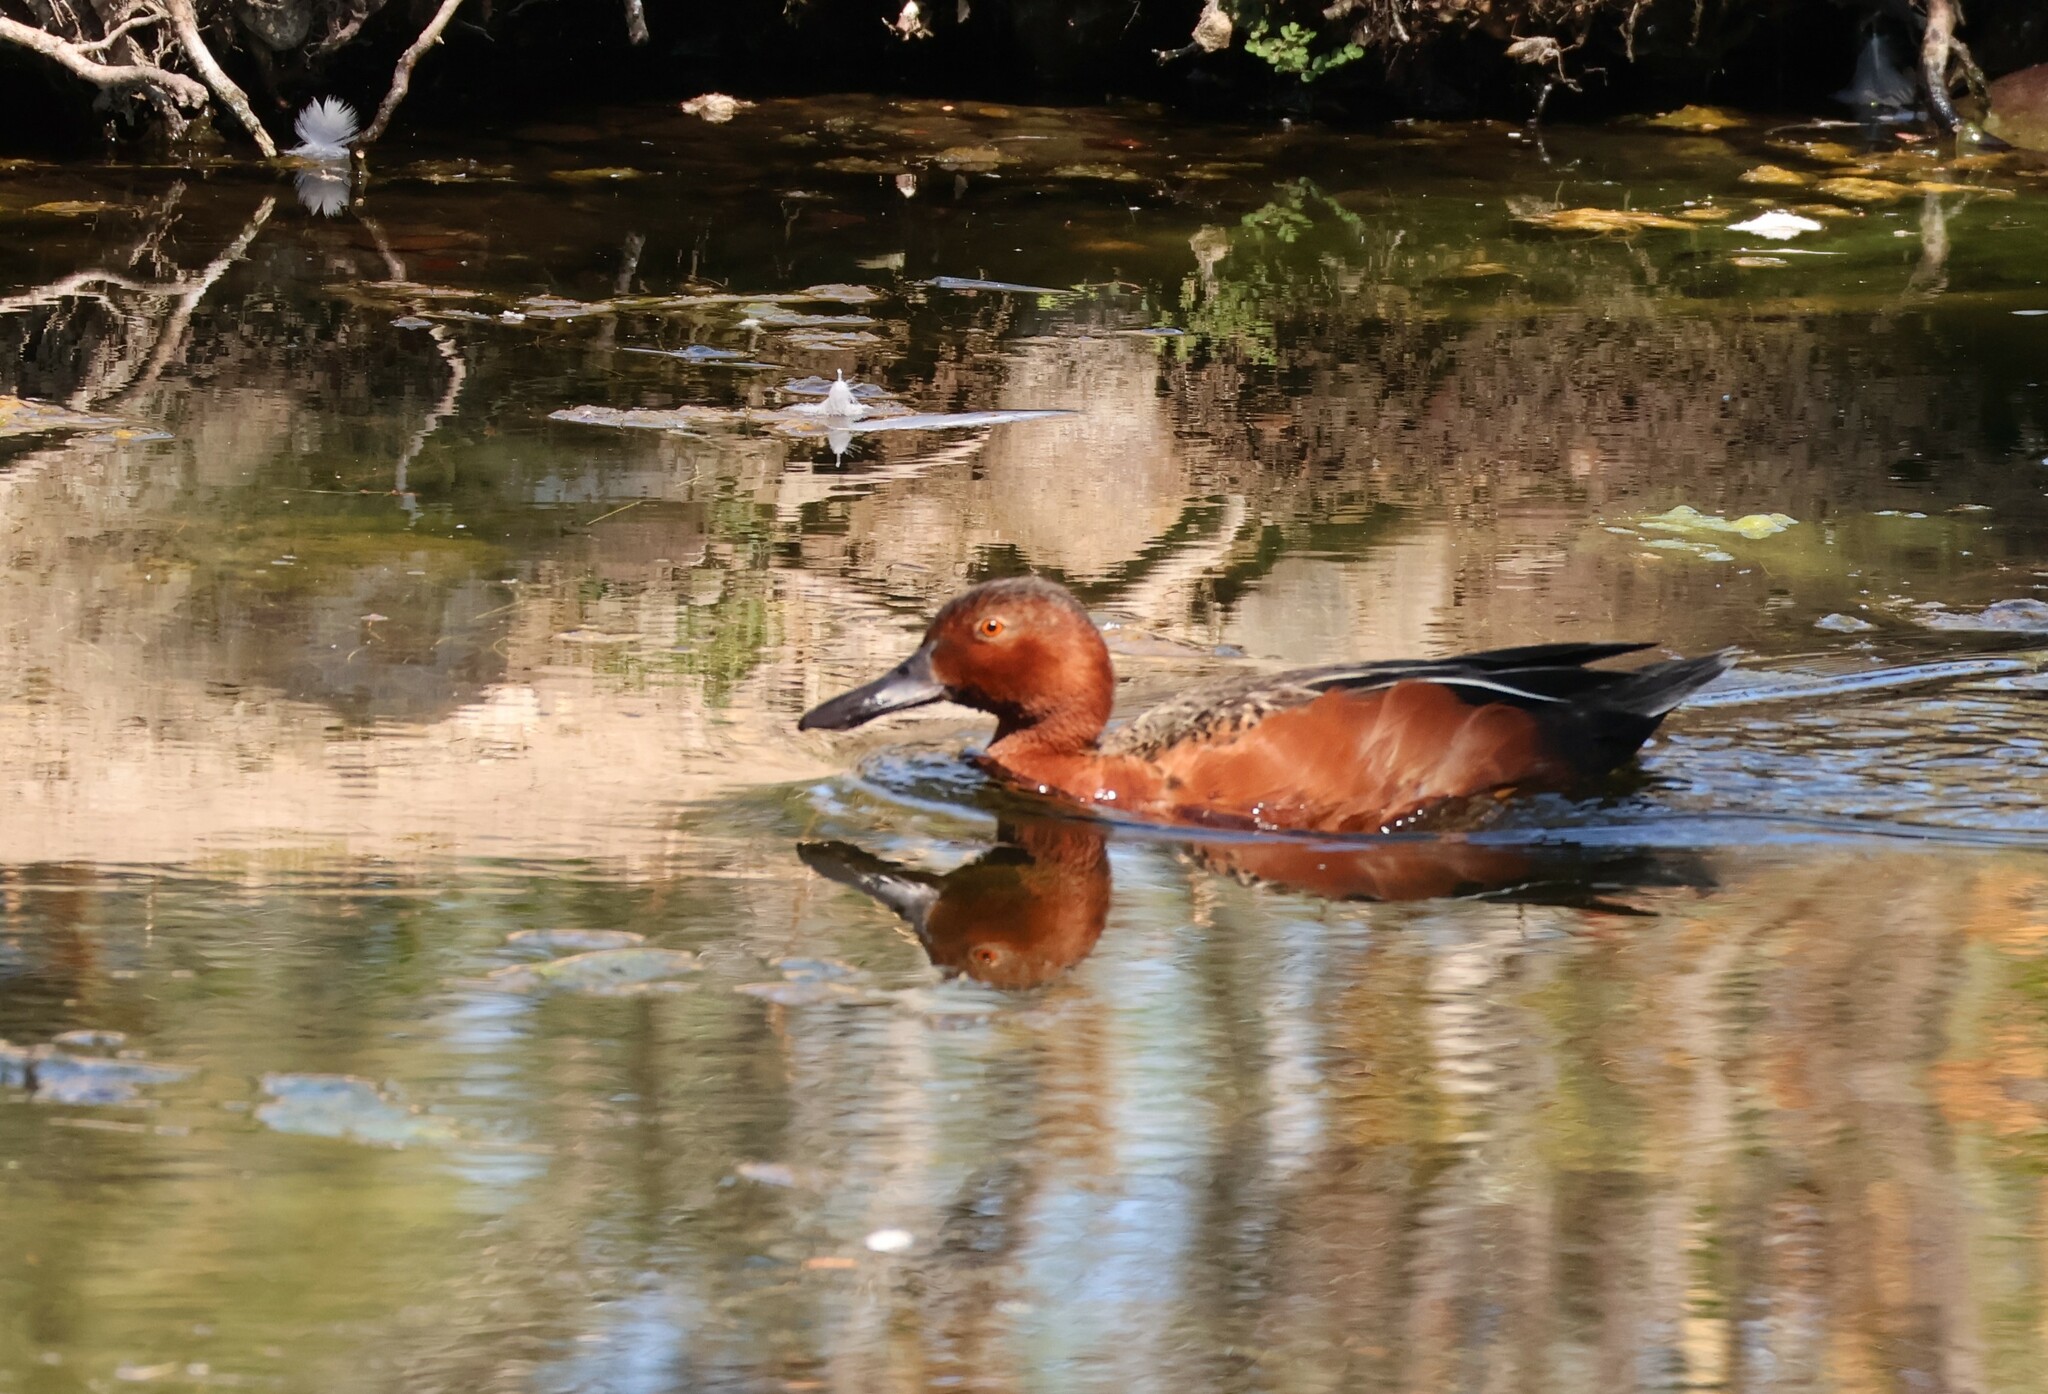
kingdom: Animalia
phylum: Chordata
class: Aves
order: Anseriformes
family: Anatidae
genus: Spatula
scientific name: Spatula cyanoptera
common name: Cinnamon teal
